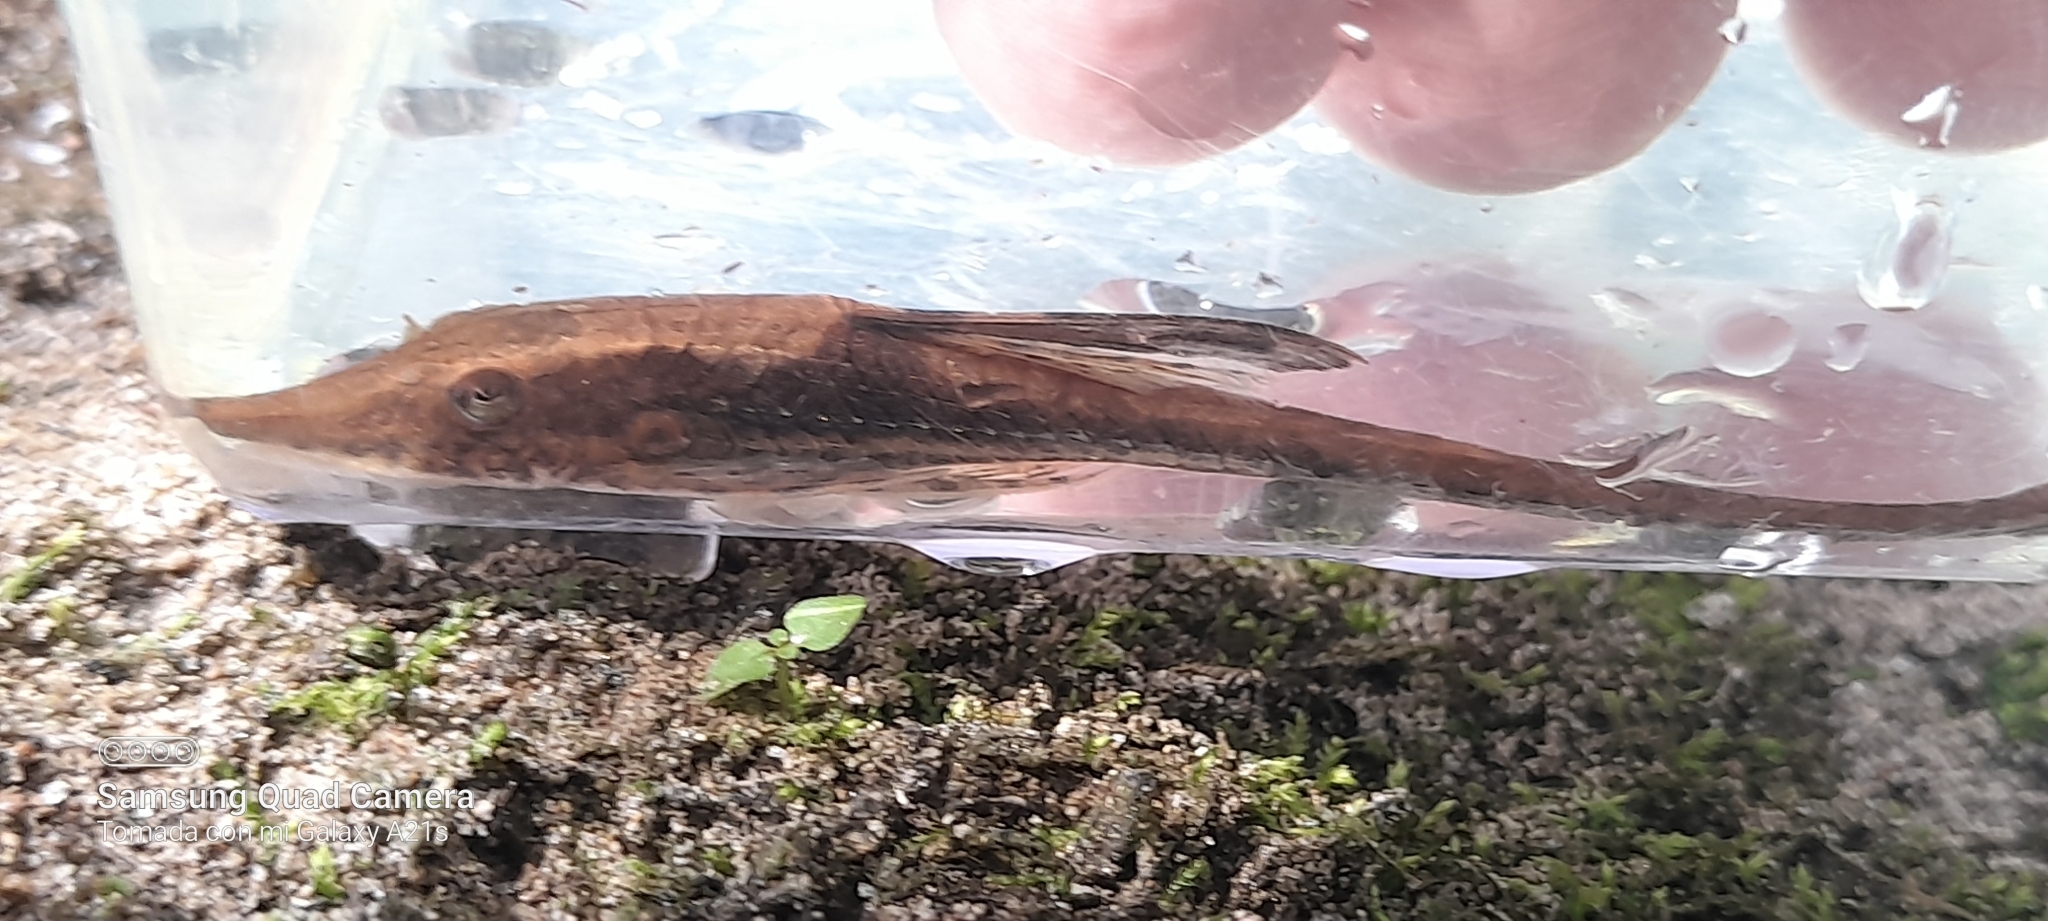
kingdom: Animalia
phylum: Chordata
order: Siluriformes
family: Loricariidae
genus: Sturisomatichthys
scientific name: Sturisomatichthys panamense
